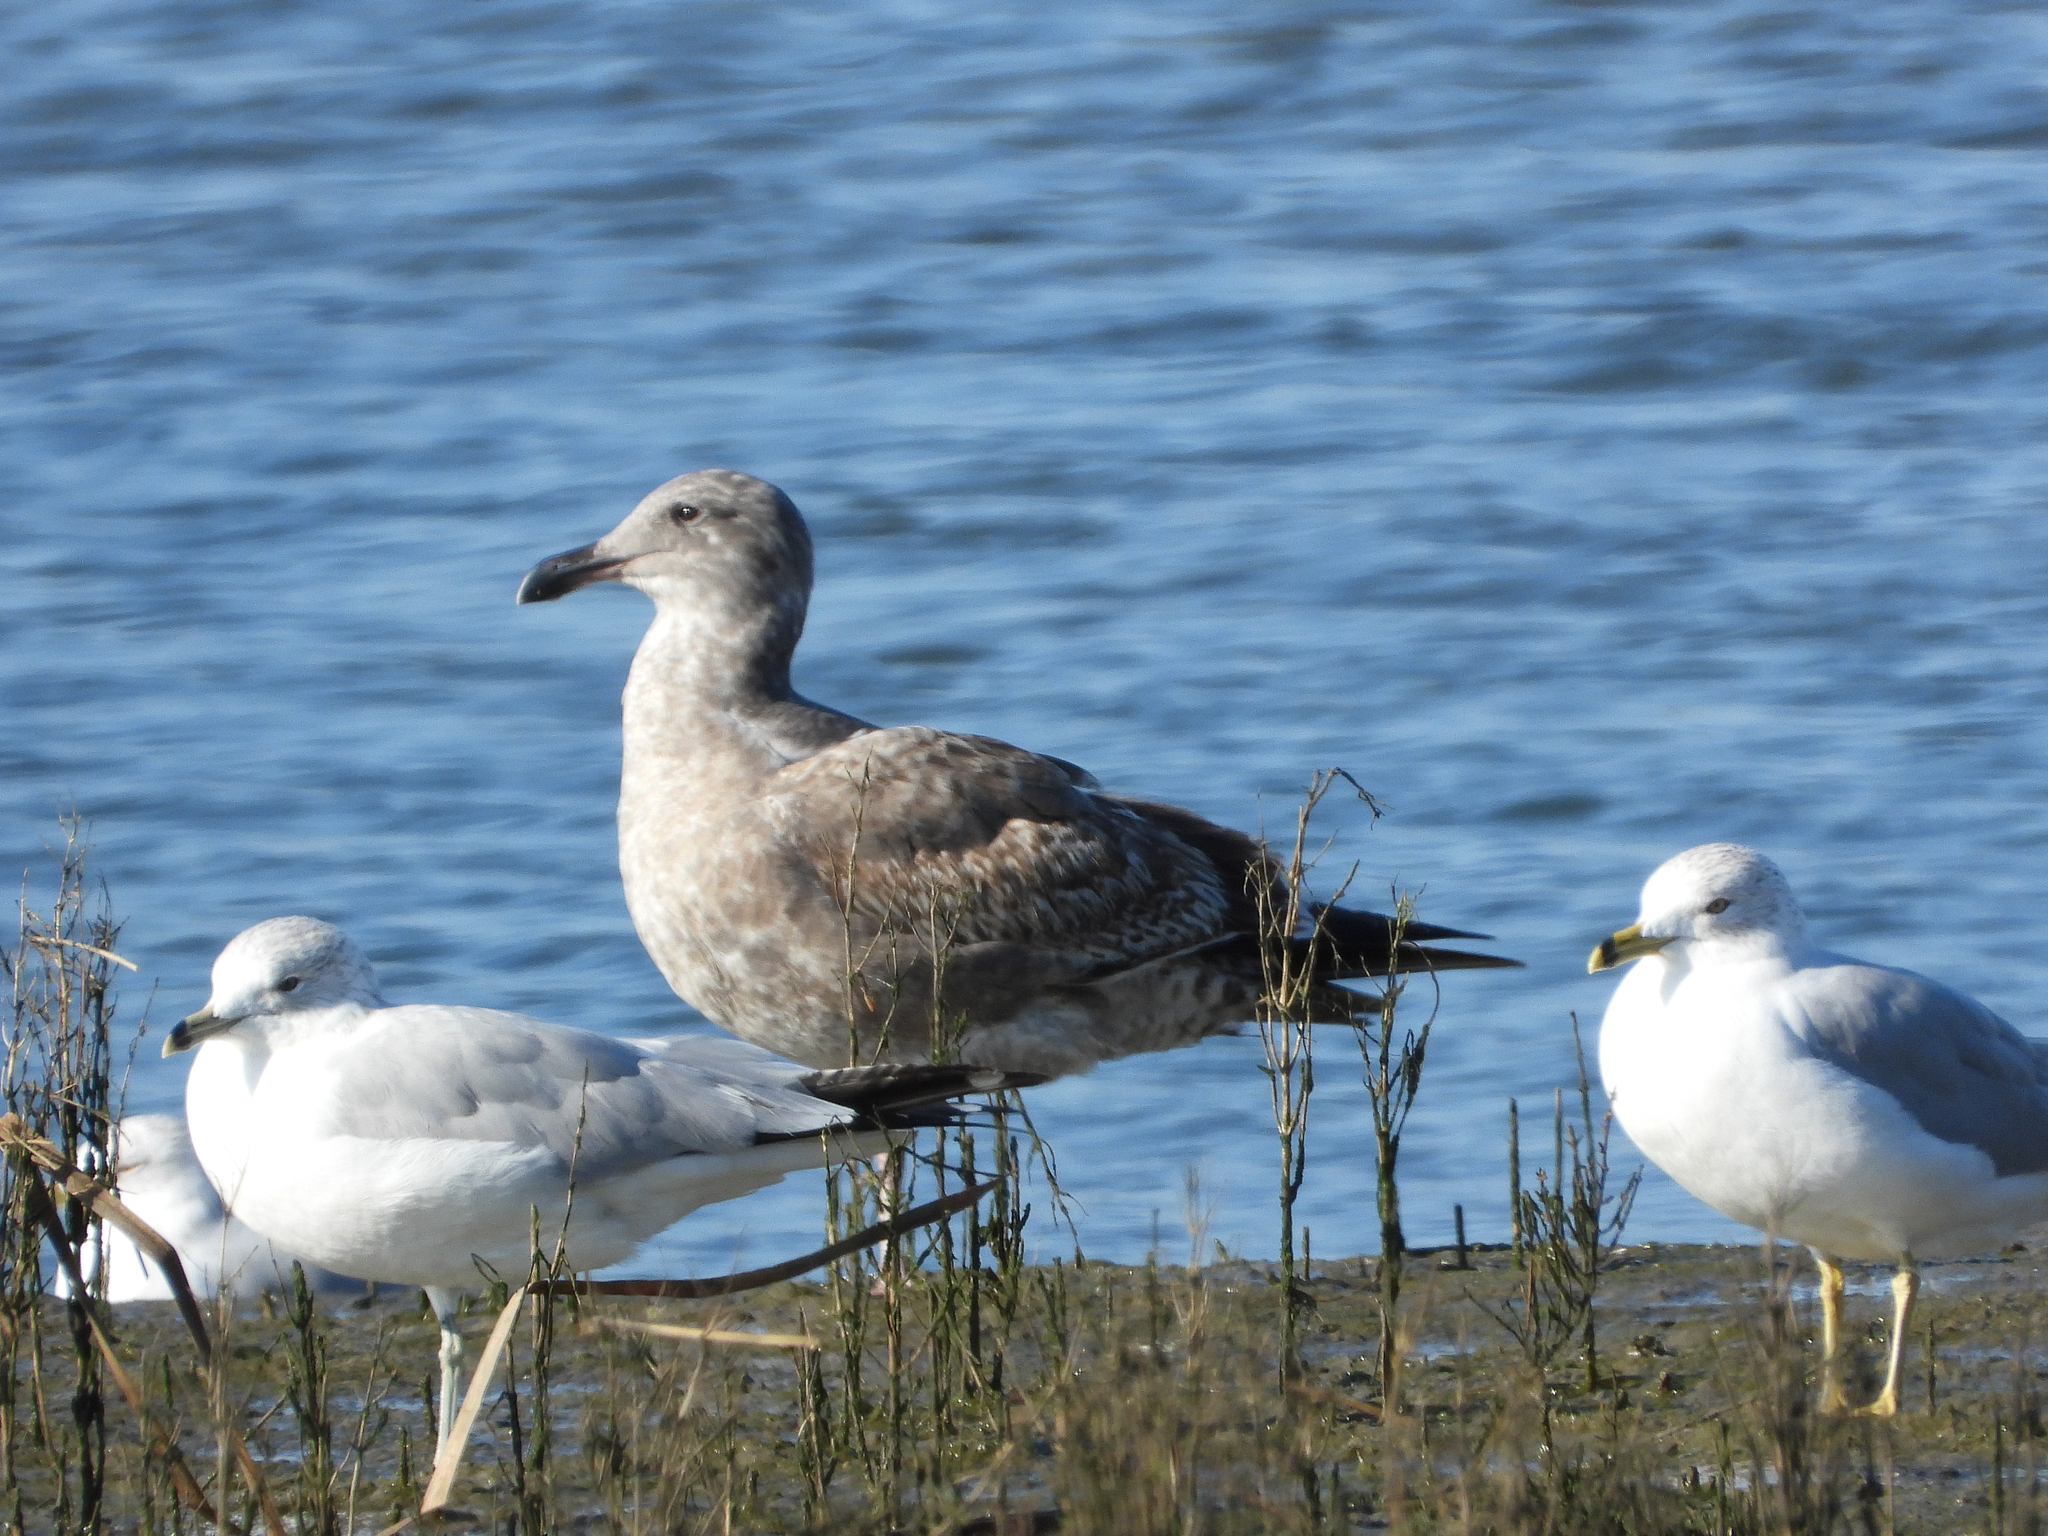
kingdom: Animalia
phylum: Chordata
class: Aves
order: Charadriiformes
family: Laridae
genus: Larus
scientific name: Larus occidentalis
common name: Western gull
